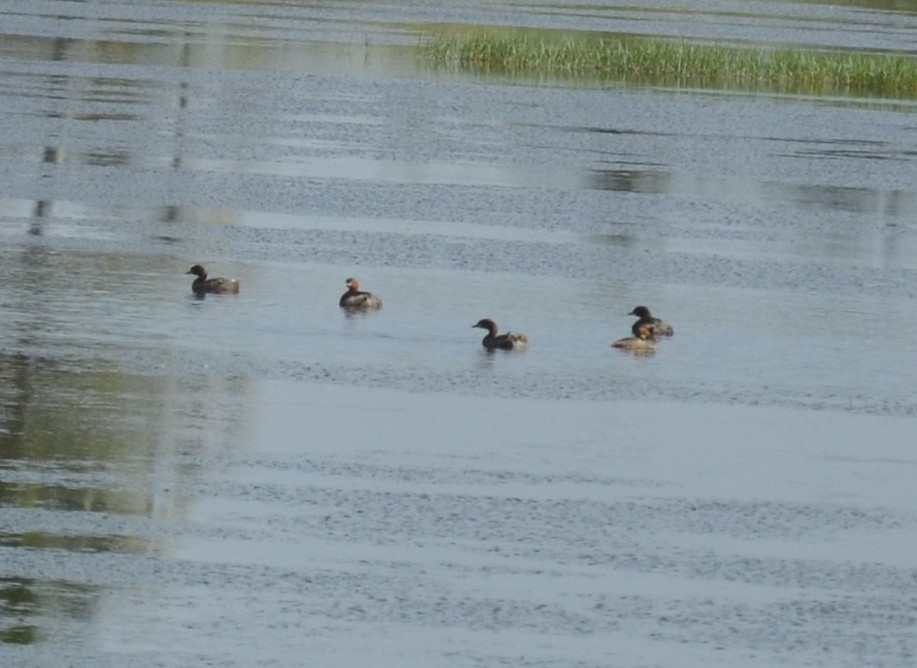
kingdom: Animalia
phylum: Chordata
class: Aves
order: Podicipediformes
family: Podicipedidae
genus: Tachybaptus
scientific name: Tachybaptus ruficollis
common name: Little grebe
